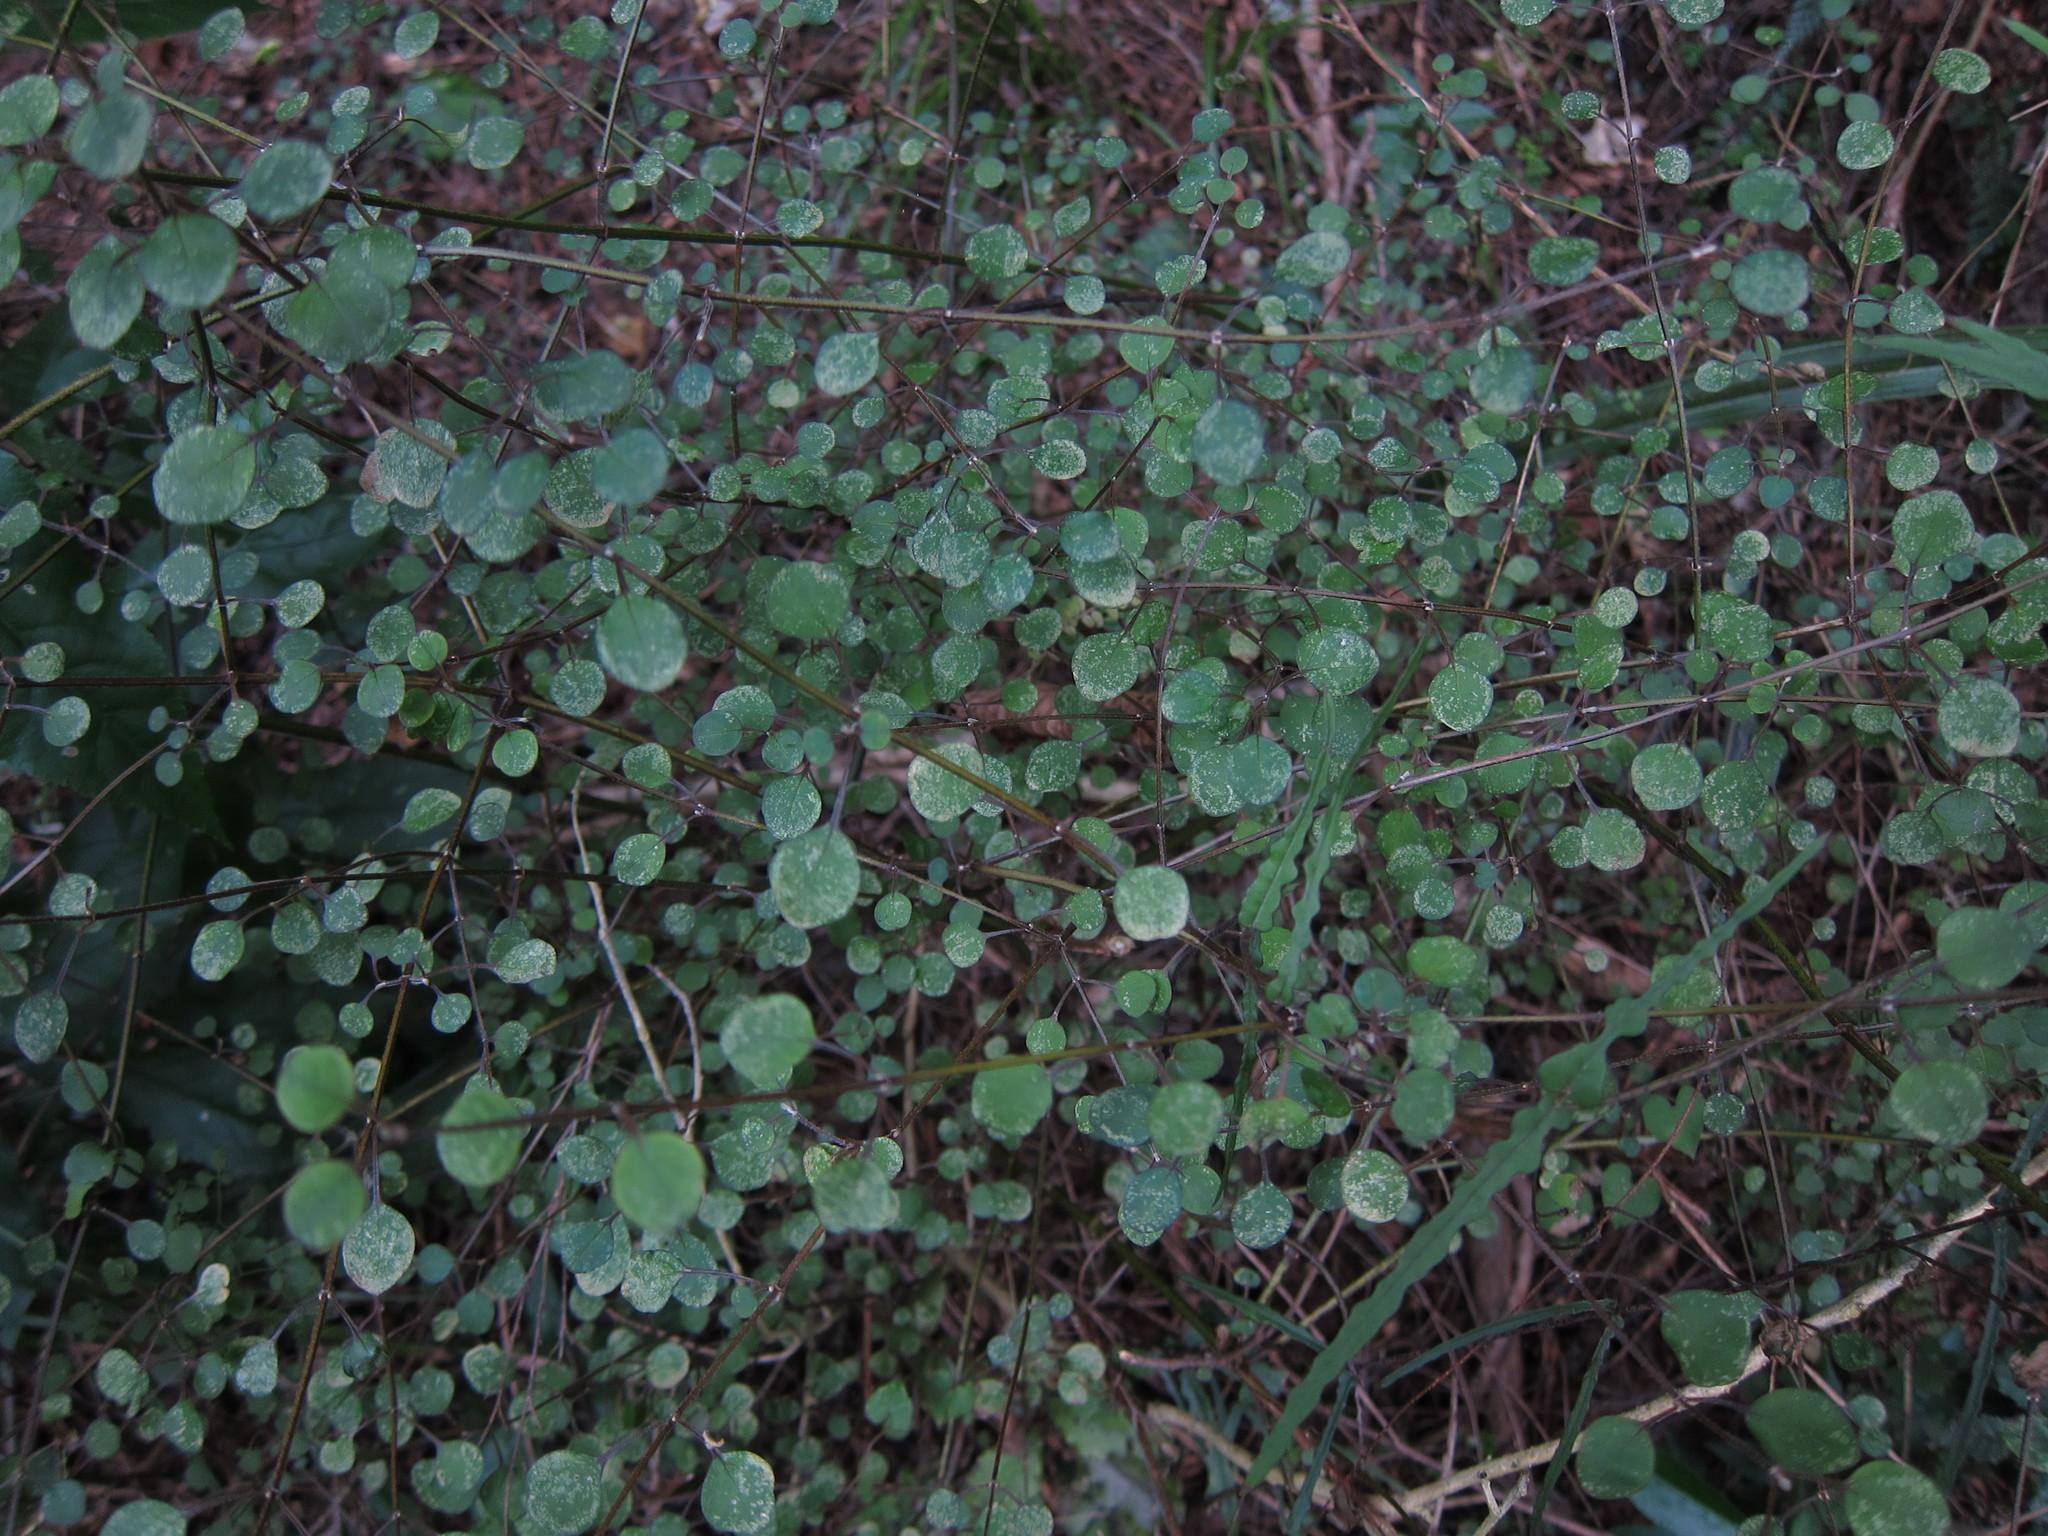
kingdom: Plantae
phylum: Tracheophyta
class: Magnoliopsida
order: Lamiales
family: Lamiaceae
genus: Teucrium
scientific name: Teucrium parvifolium
